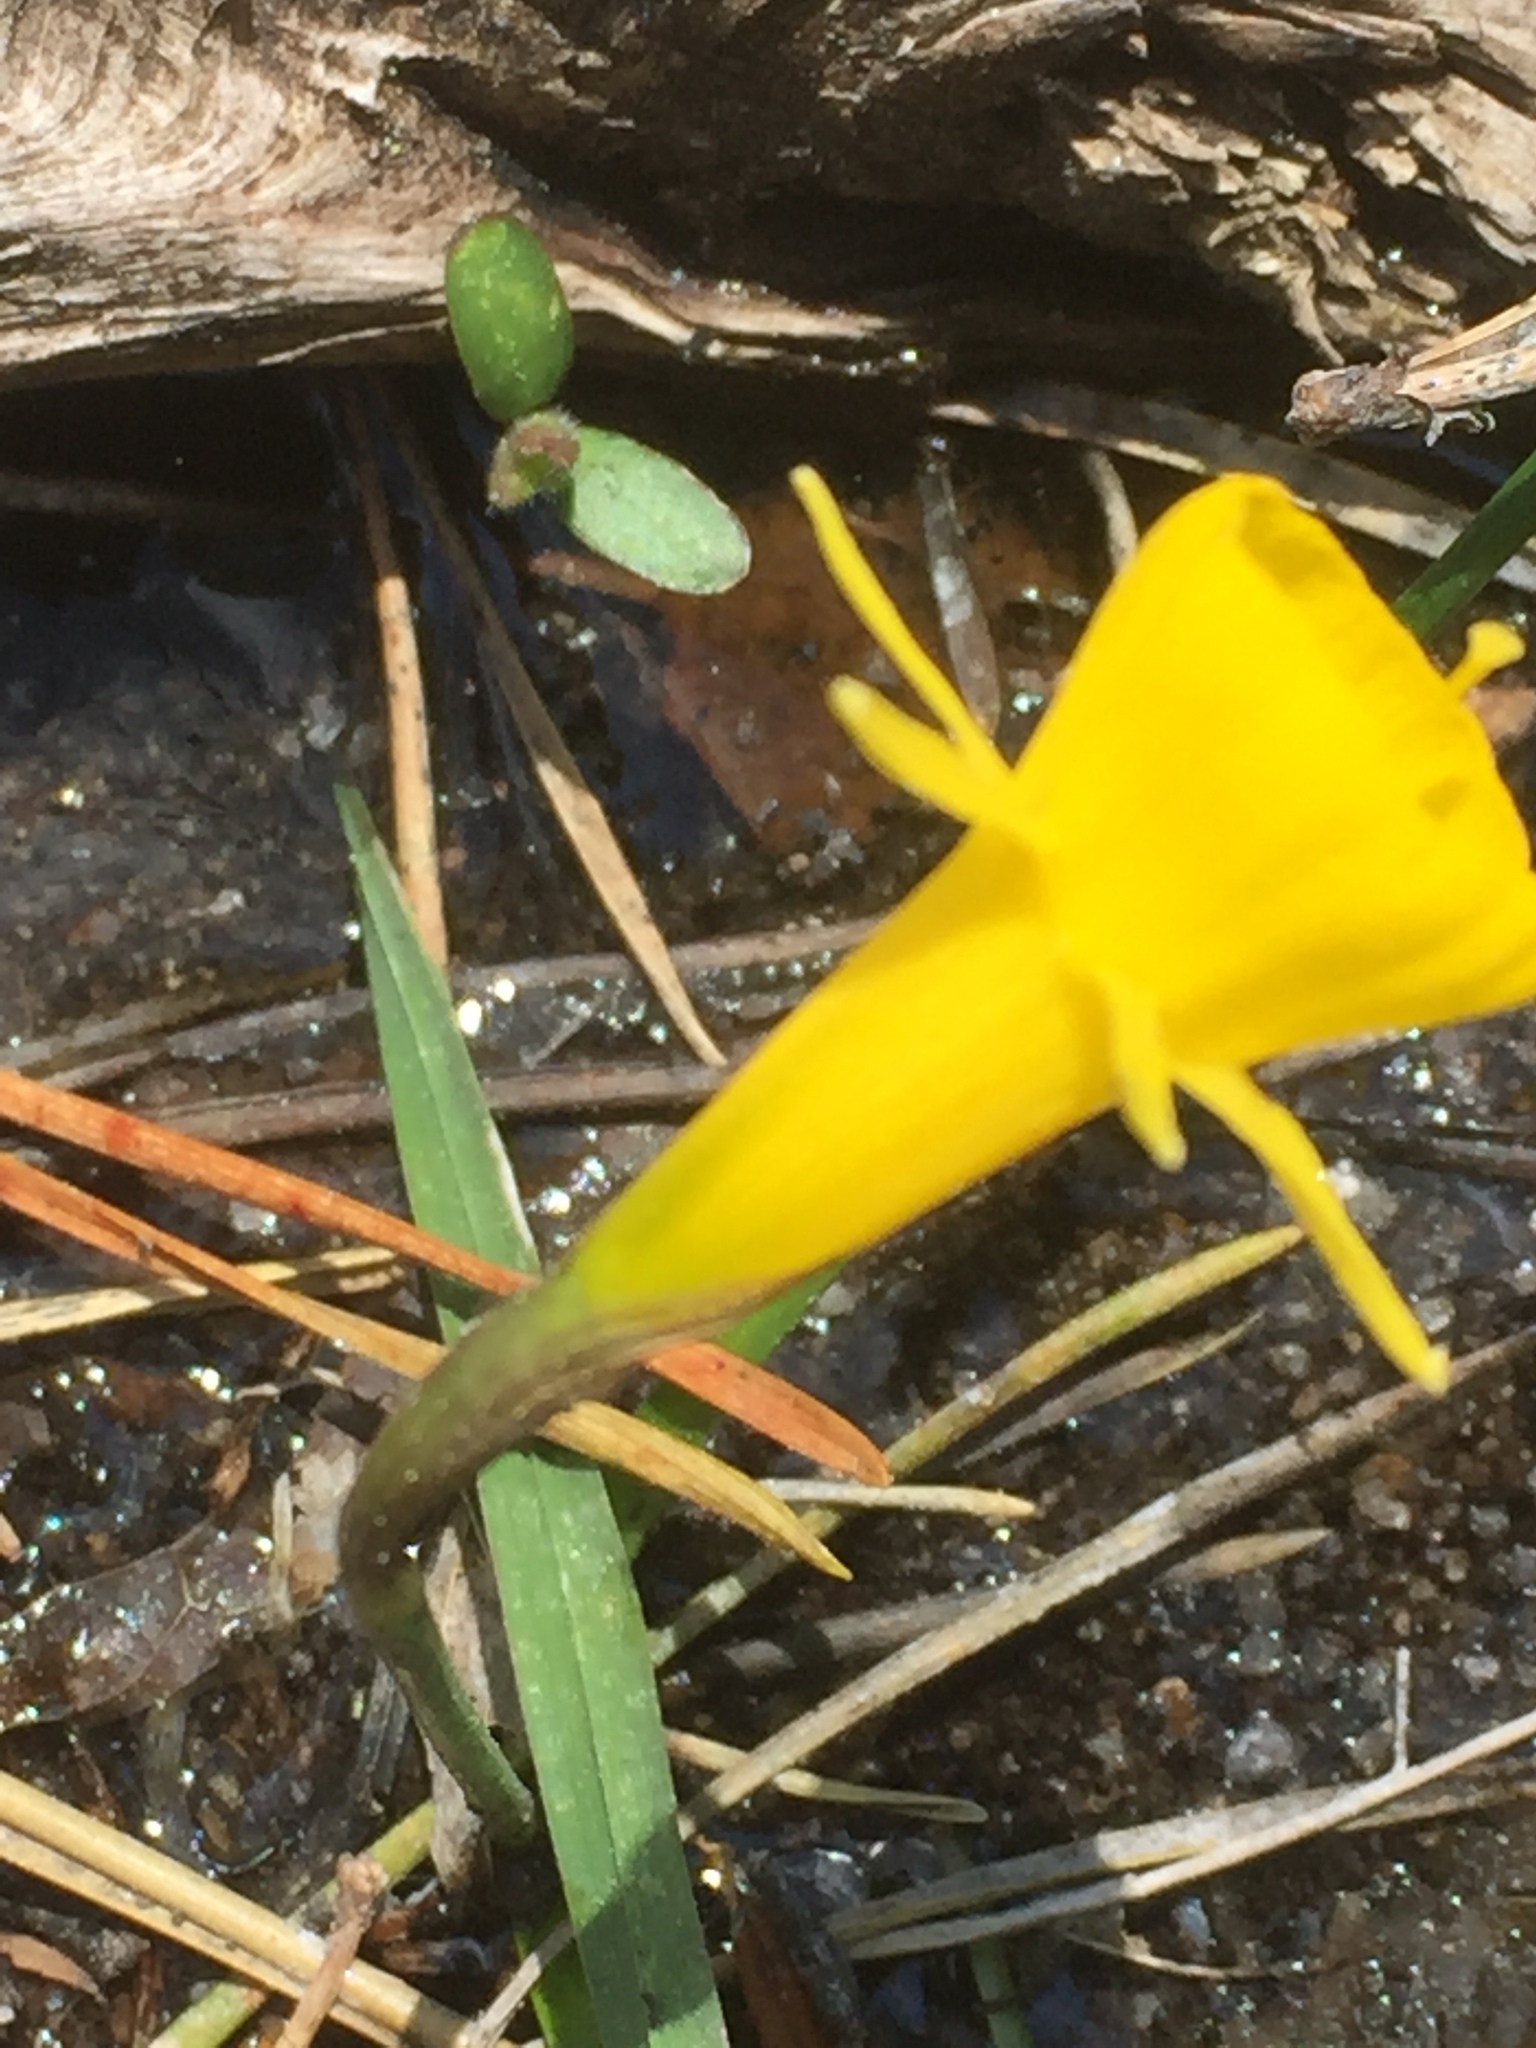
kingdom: Plantae
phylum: Tracheophyta
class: Liliopsida
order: Asparagales
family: Amaryllidaceae
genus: Narcissus
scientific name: Narcissus bulbocodium
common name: Hoop-petticoat daffodil
